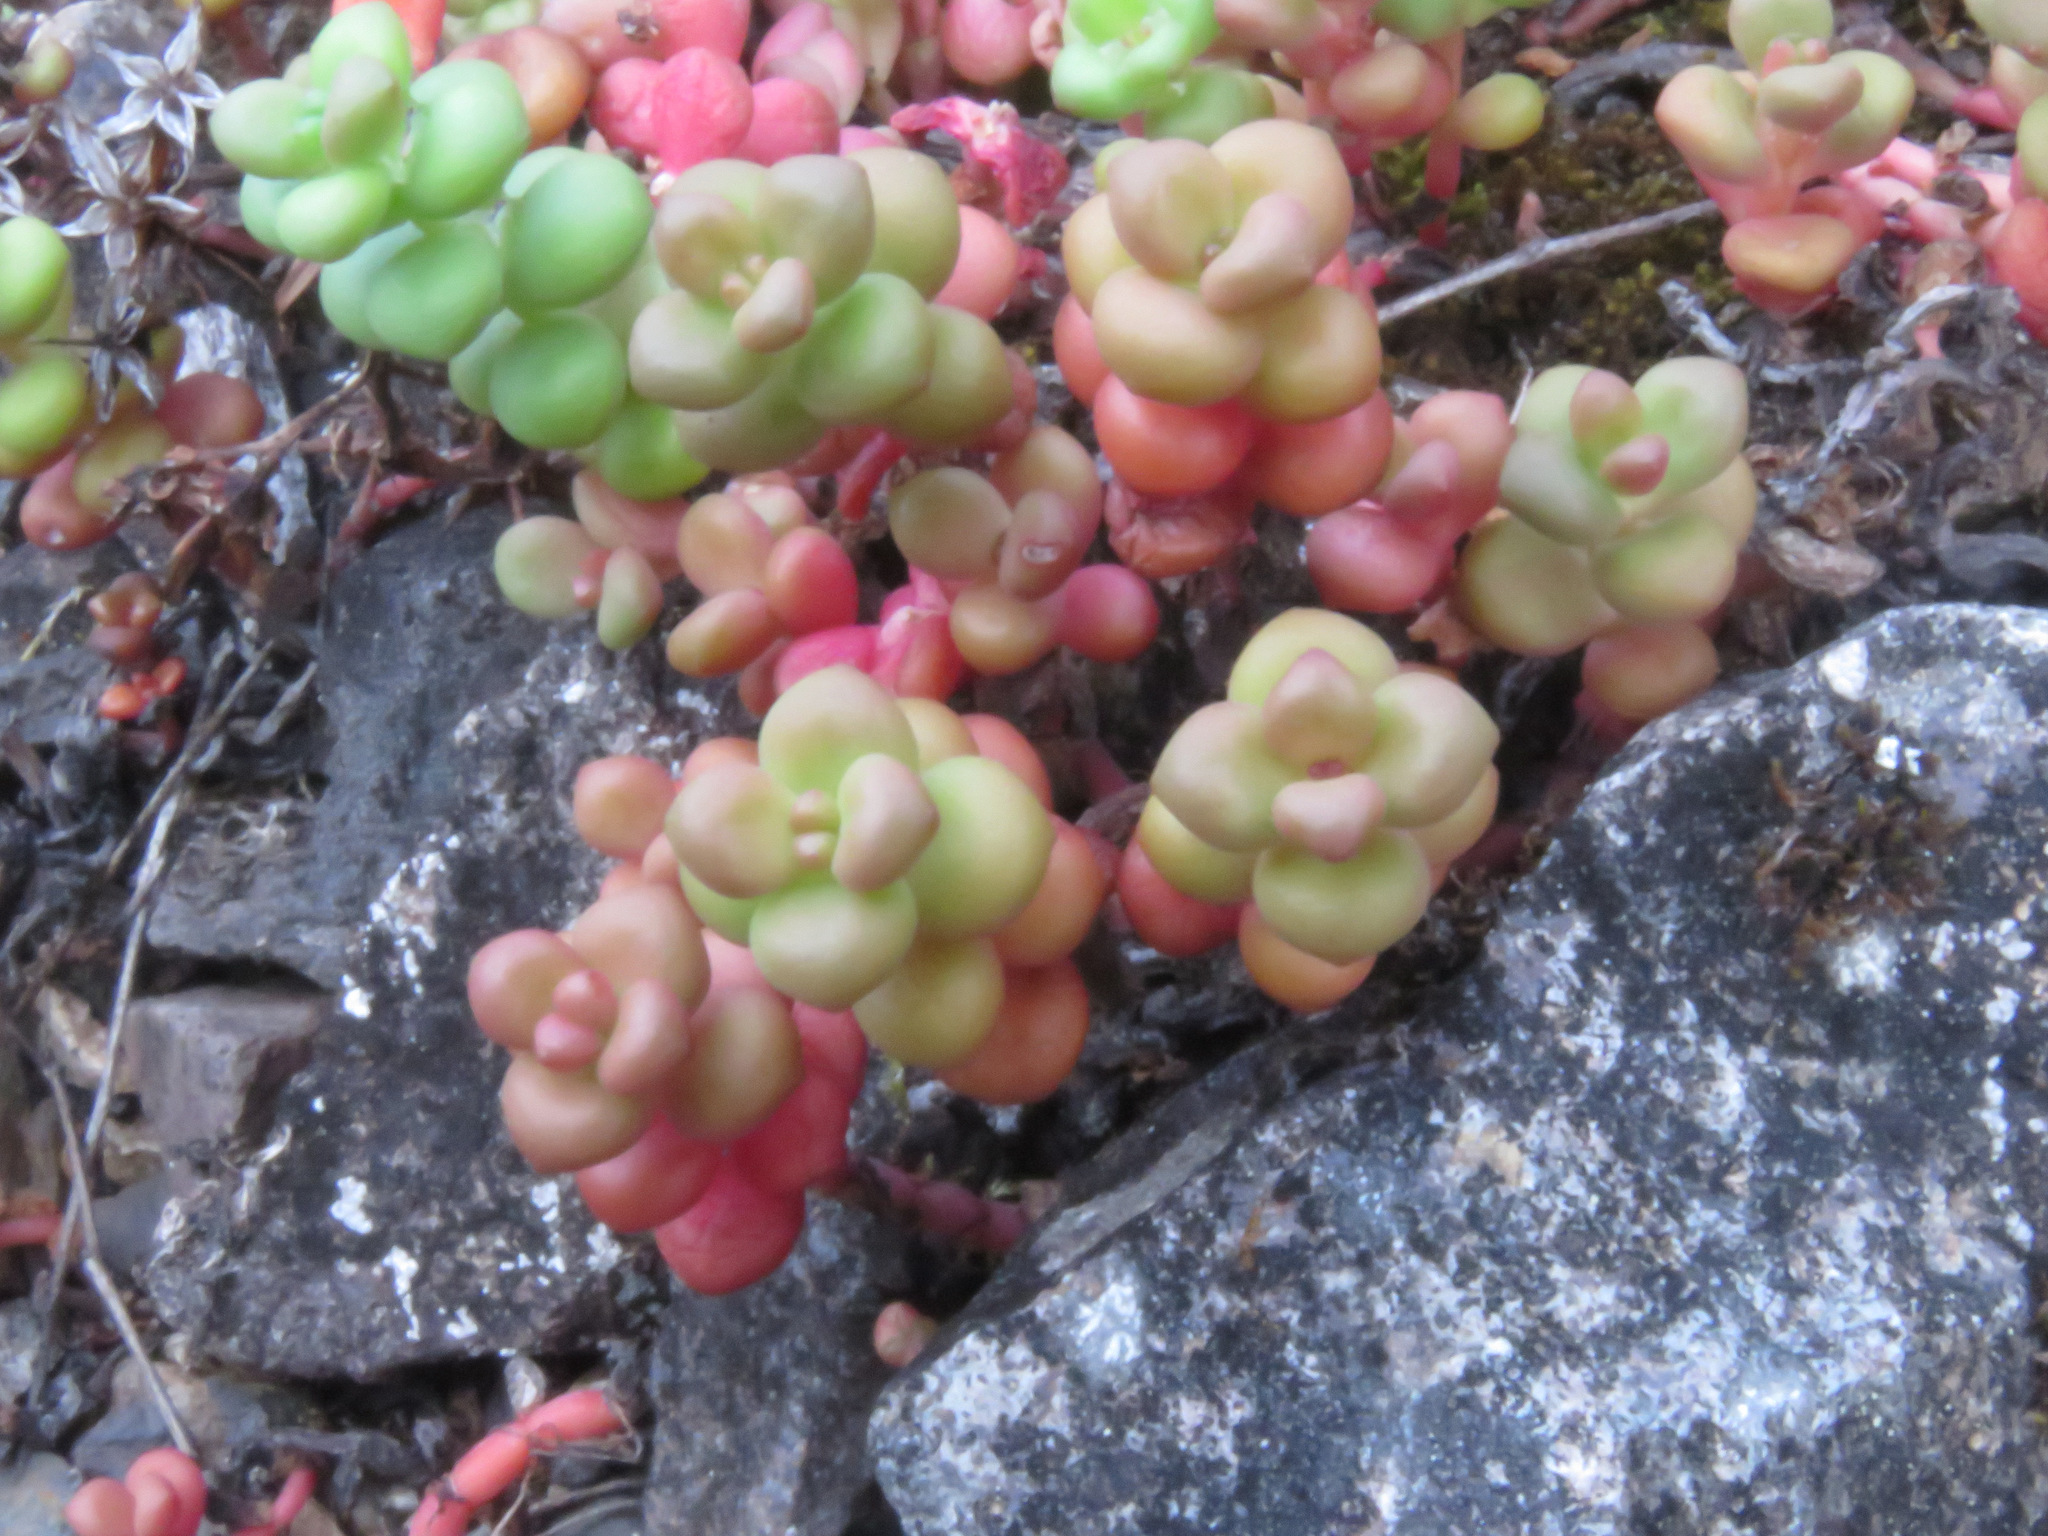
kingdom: Plantae
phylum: Tracheophyta
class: Magnoliopsida
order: Saxifragales
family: Crassulaceae
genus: Sedum
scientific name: Sedum divergens
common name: Cascade stonecrop
